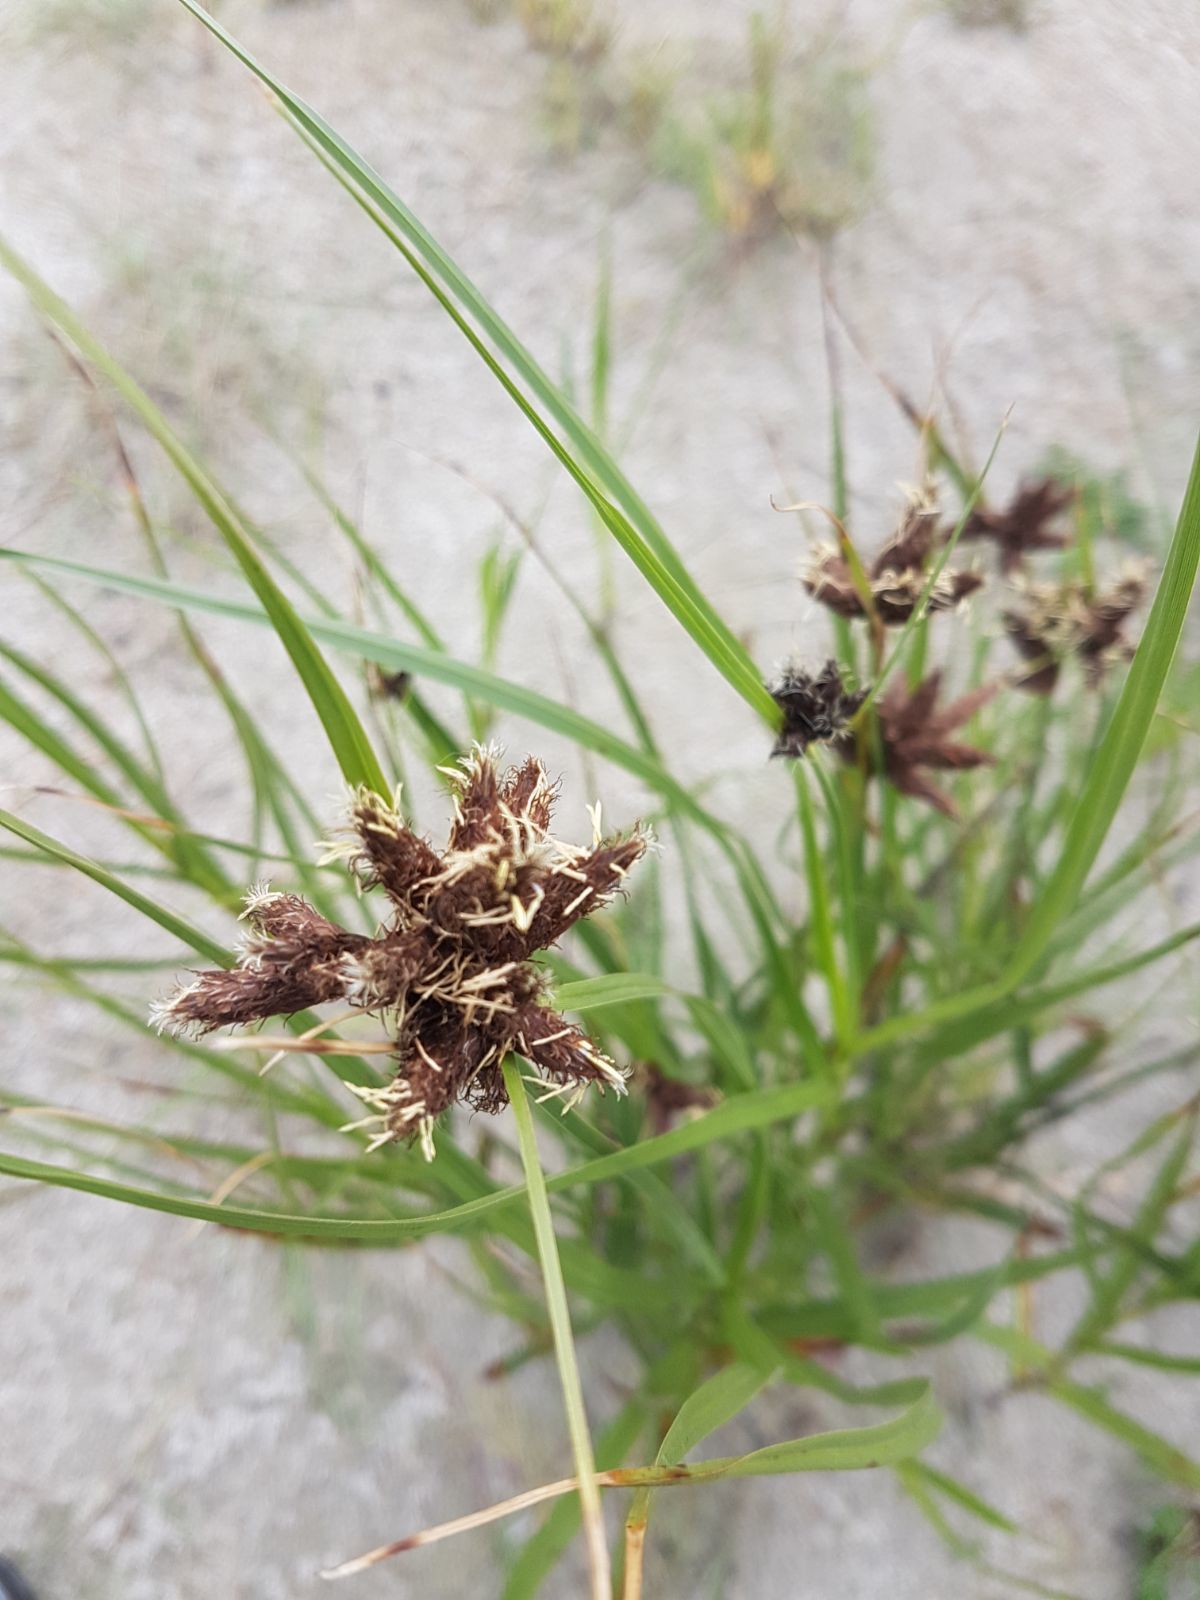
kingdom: Plantae
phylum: Tracheophyta
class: Liliopsida
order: Poales
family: Cyperaceae
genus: Bolboschoenus
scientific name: Bolboschoenus maritimus
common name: Sea club-rush
